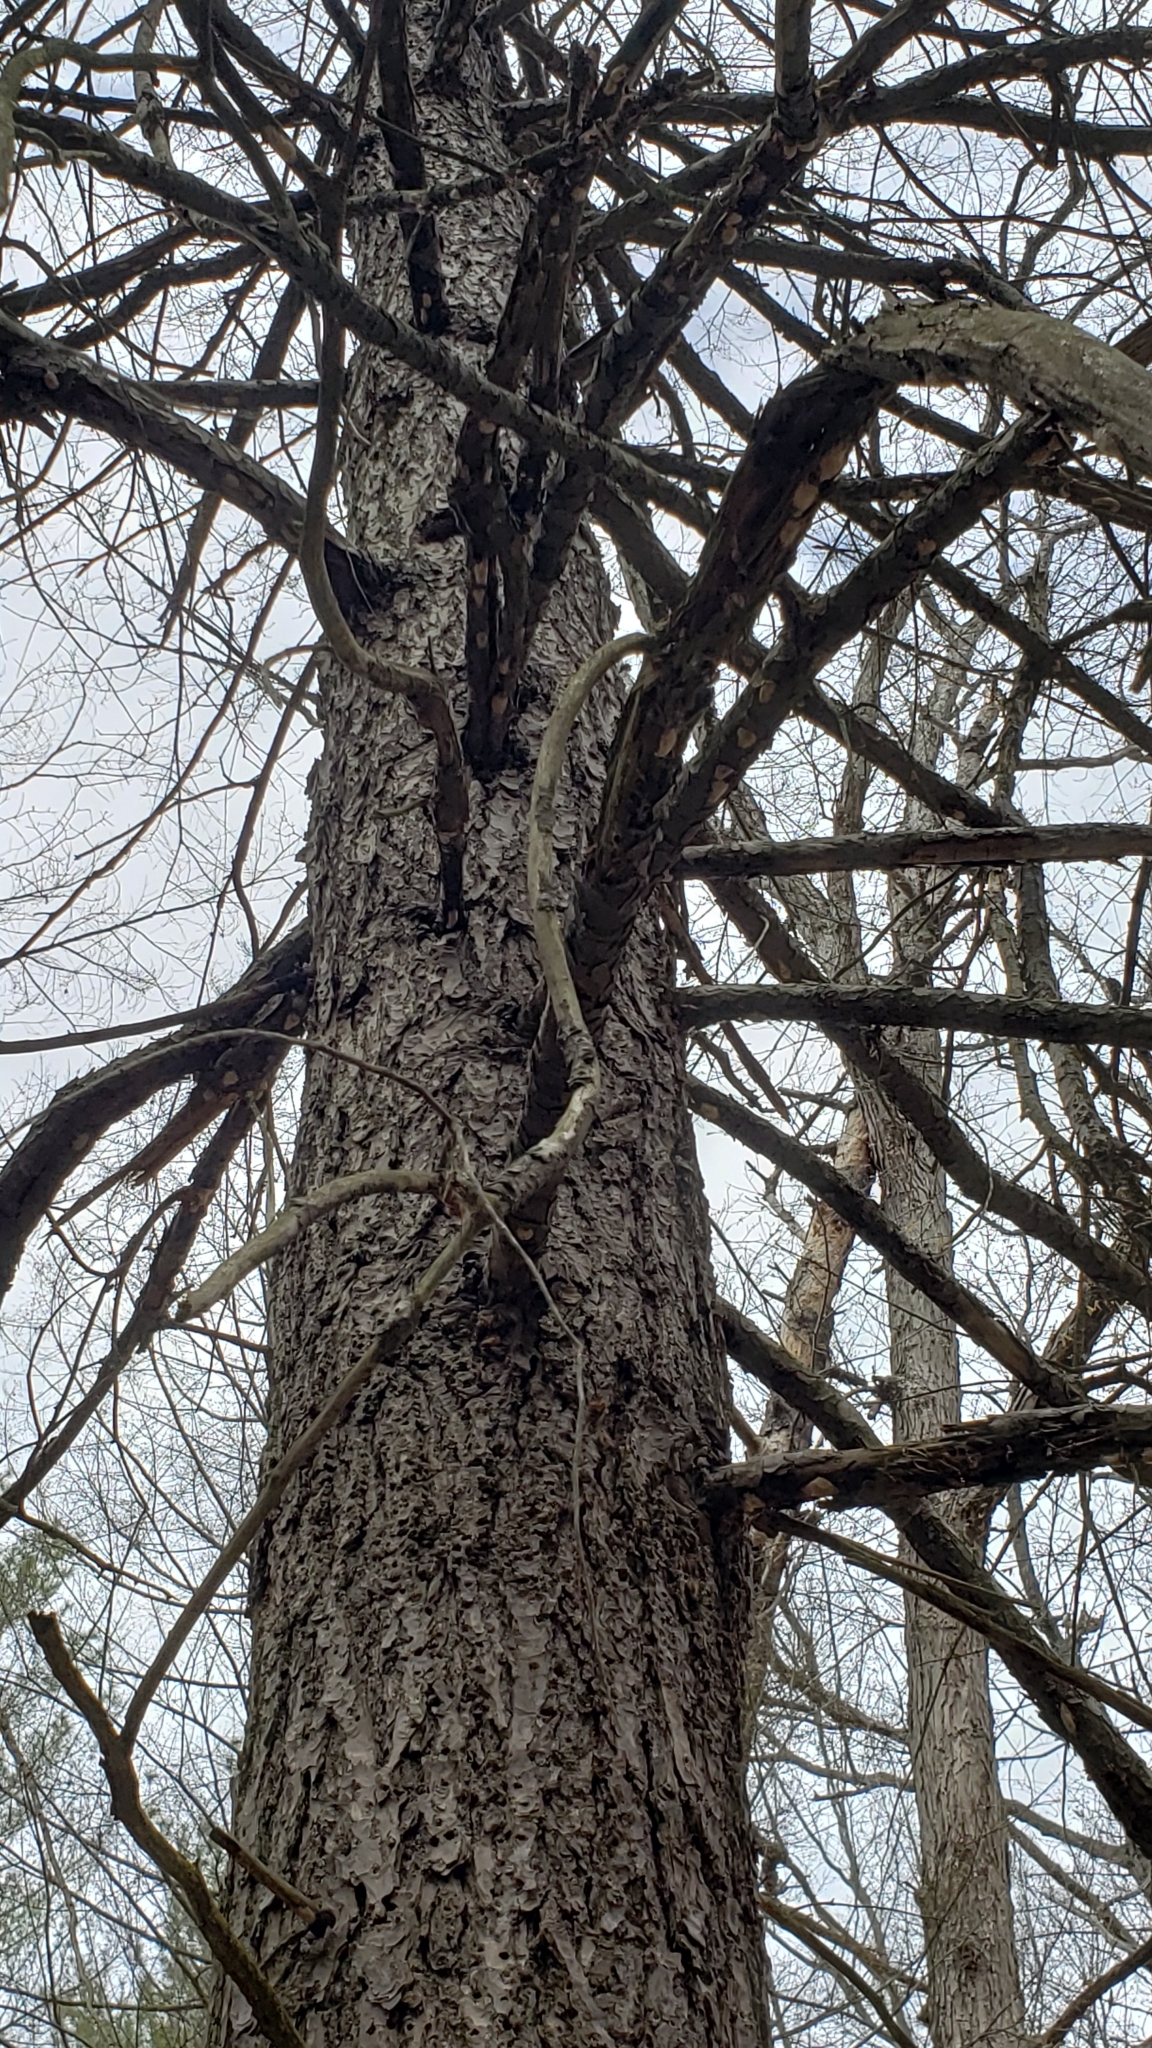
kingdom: Animalia
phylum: Arthropoda
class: Insecta
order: Lepidoptera
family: Erebidae
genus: Lymantria
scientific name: Lymantria dispar
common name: Gypsy moth
